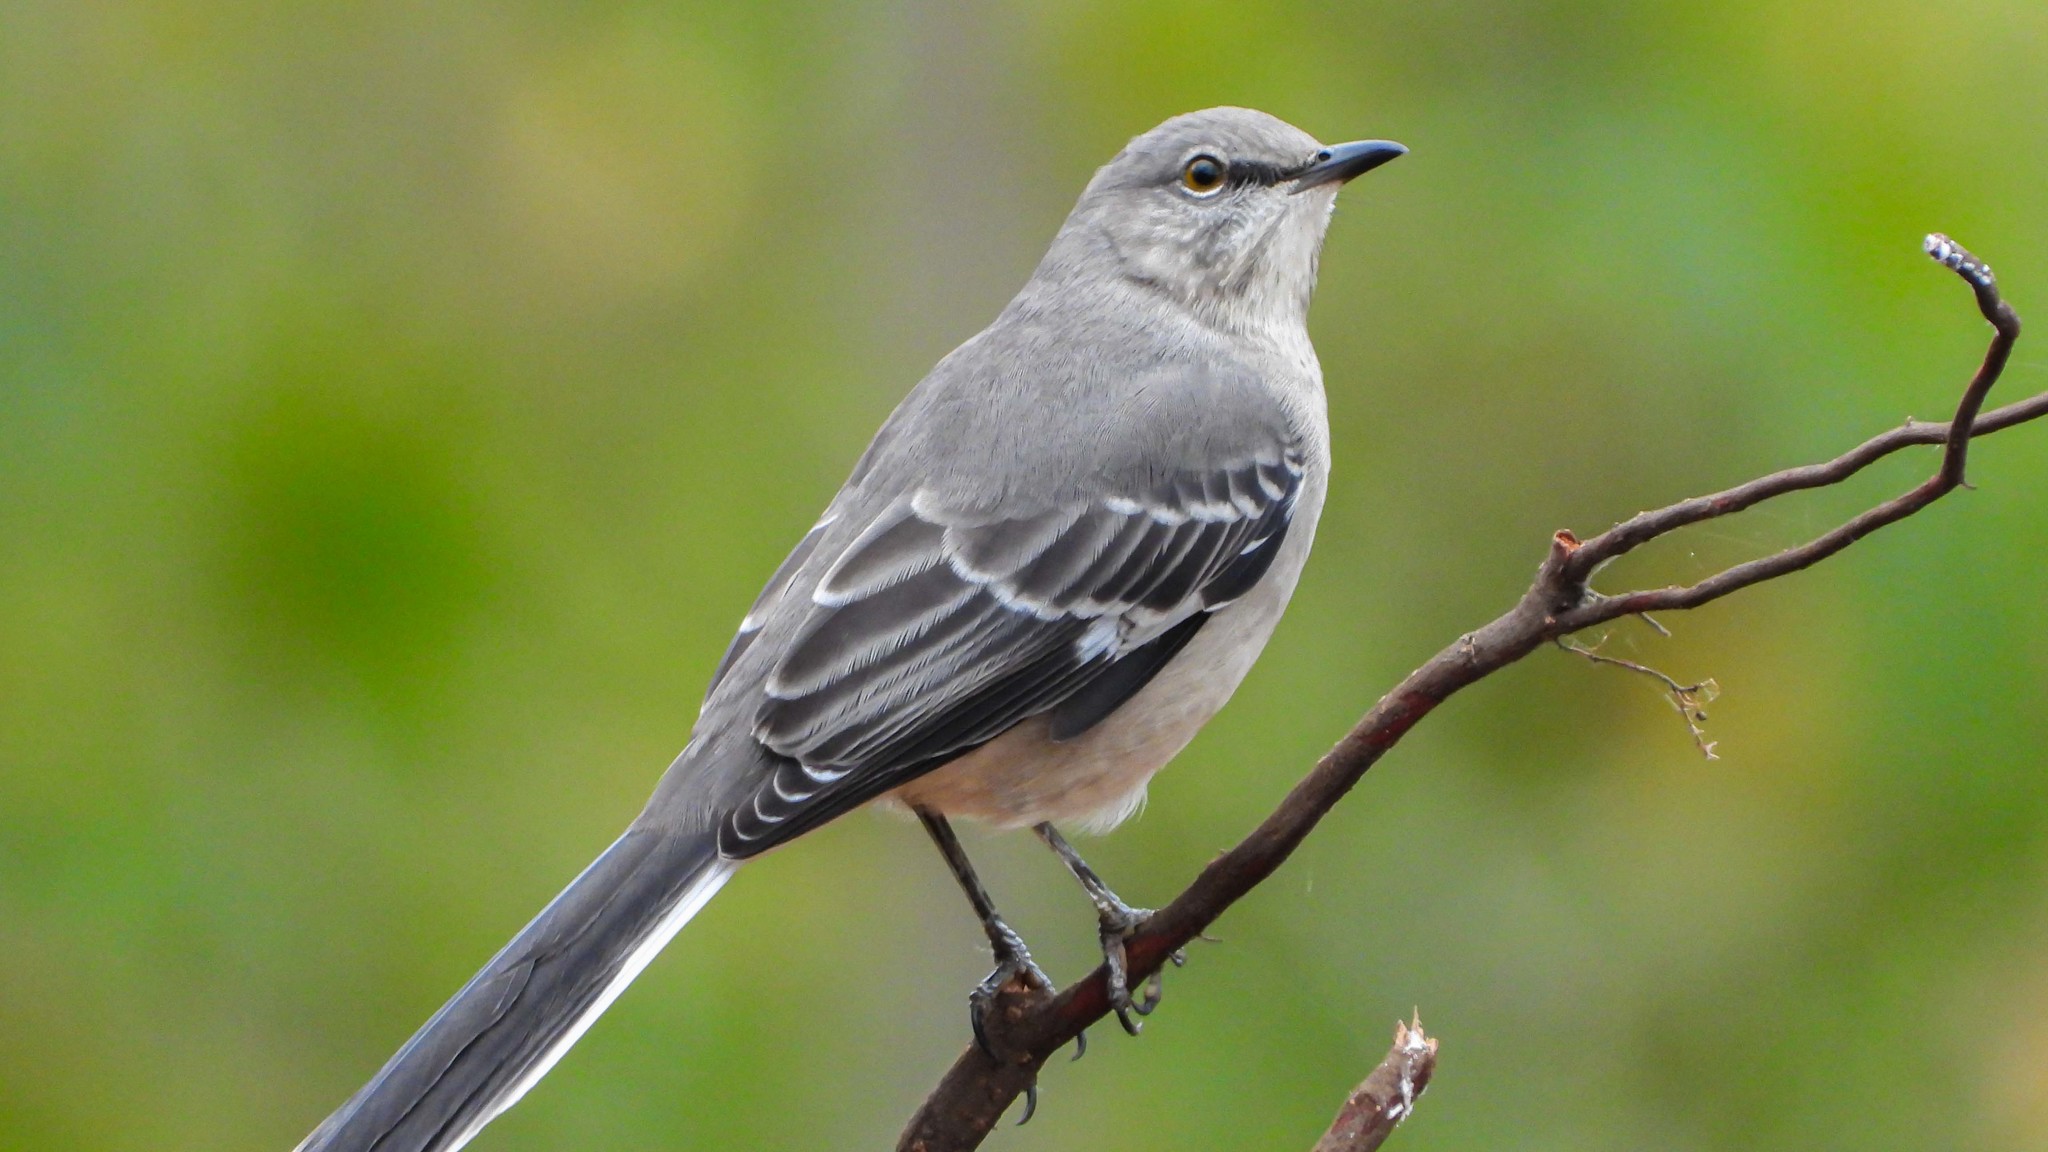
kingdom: Animalia
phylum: Chordata
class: Aves
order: Passeriformes
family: Mimidae
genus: Mimus
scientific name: Mimus polyglottos
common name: Northern mockingbird
